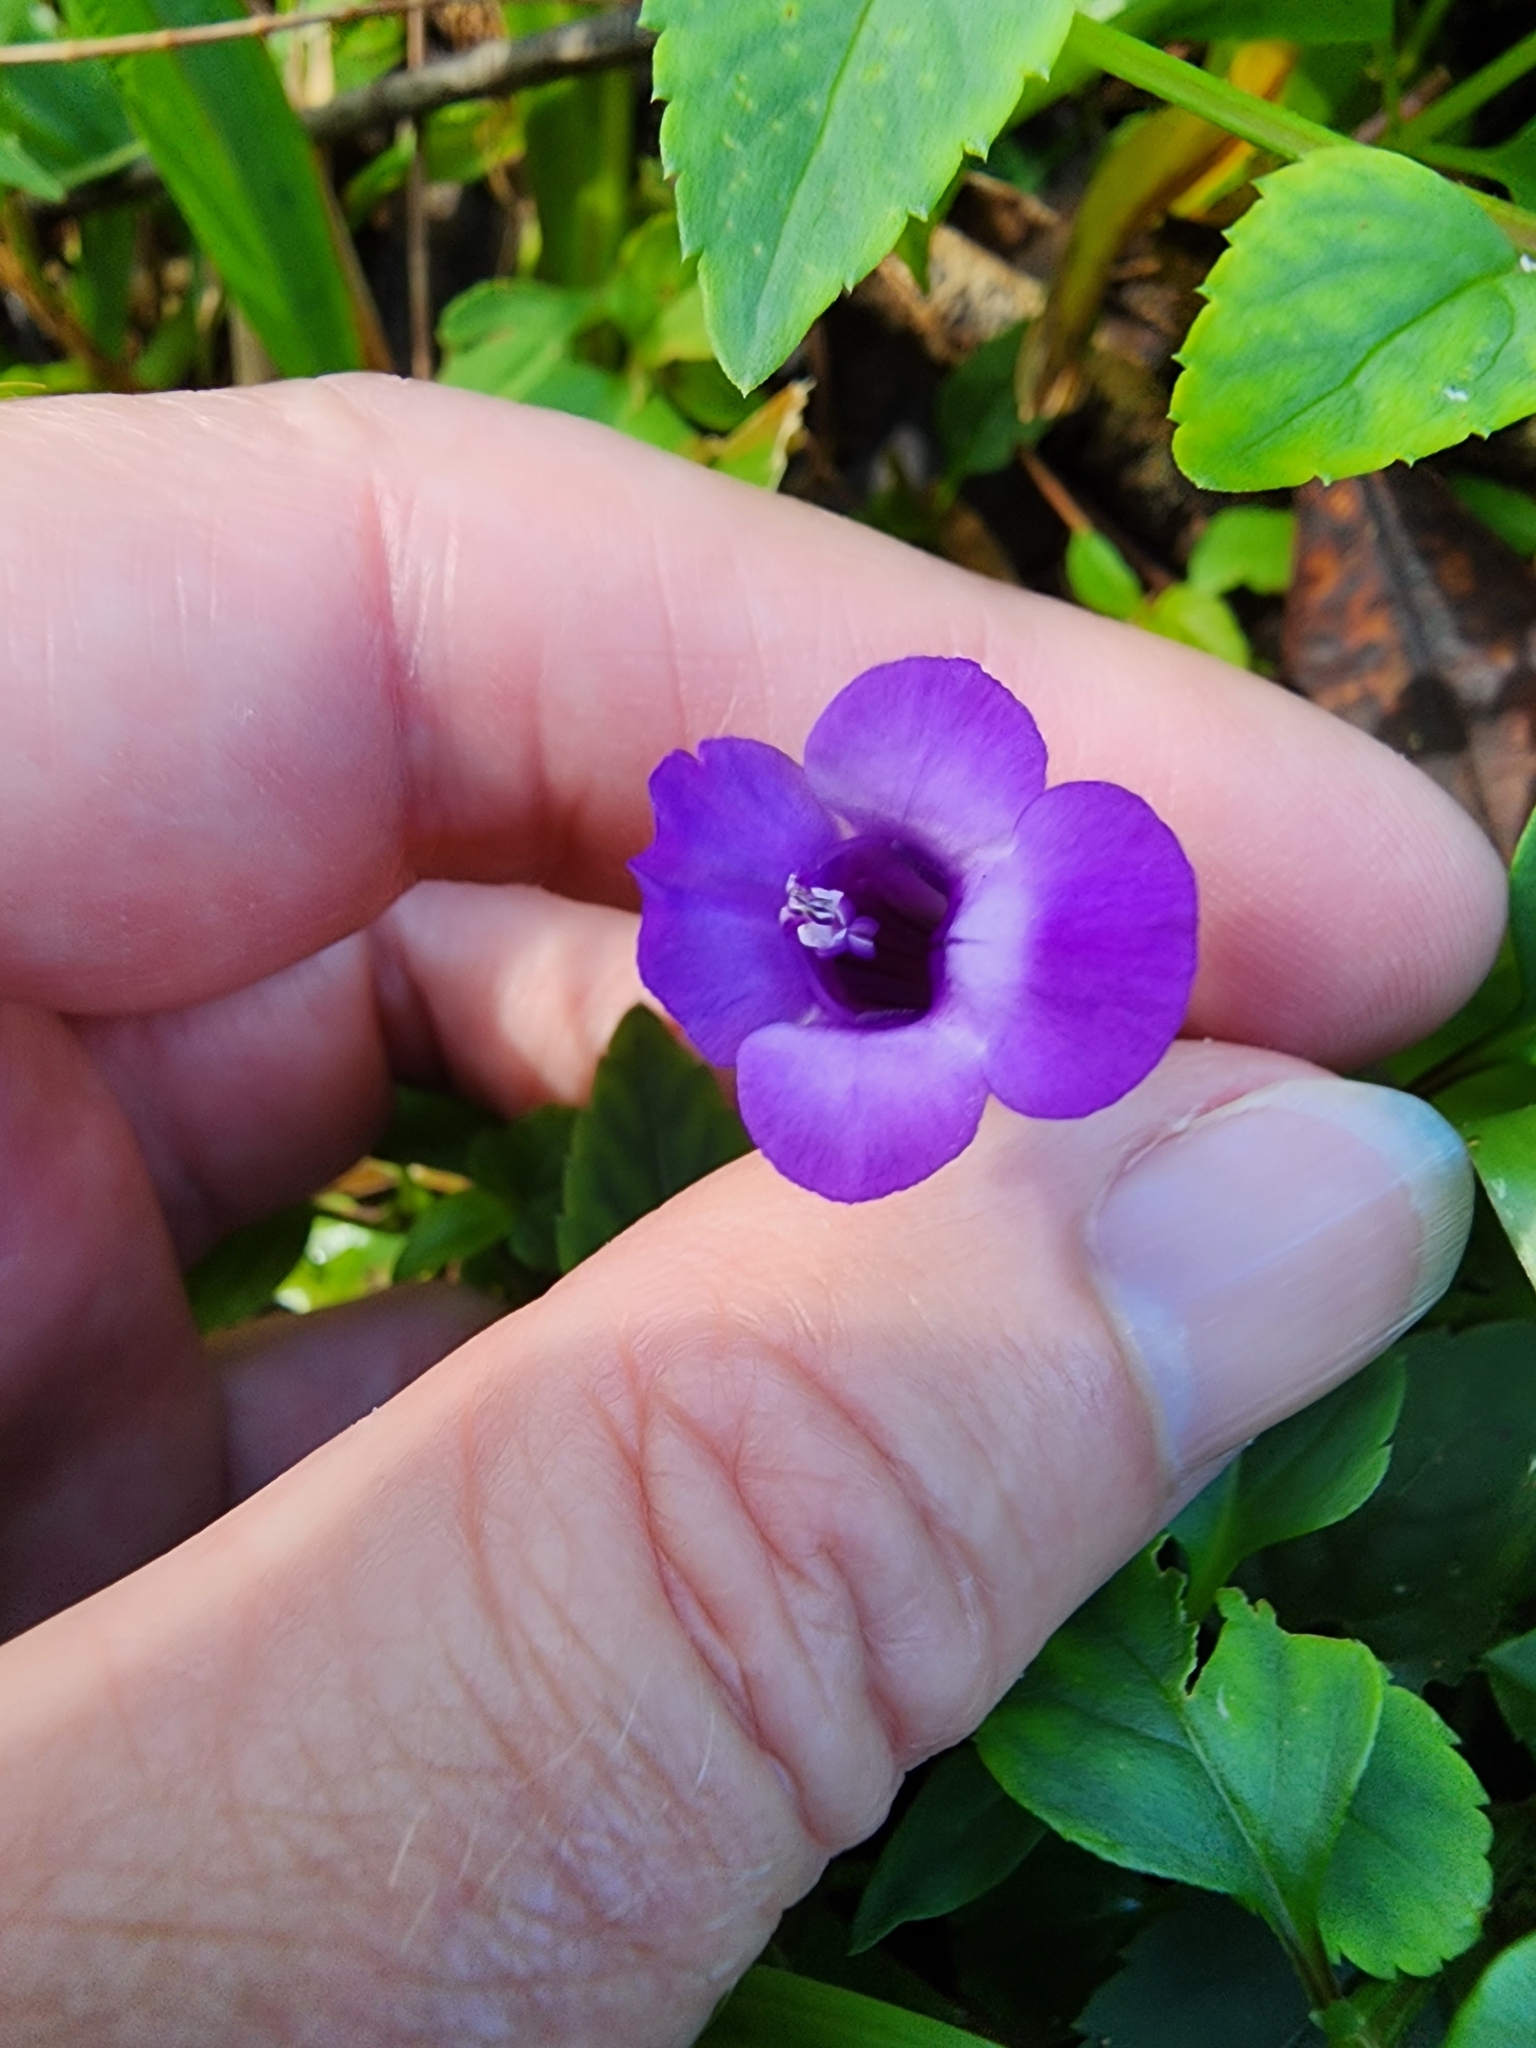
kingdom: Plantae
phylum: Tracheophyta
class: Magnoliopsida
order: Lamiales
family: Linderniaceae
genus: Torenia
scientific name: Torenia asiatica
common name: Wishbone flower
